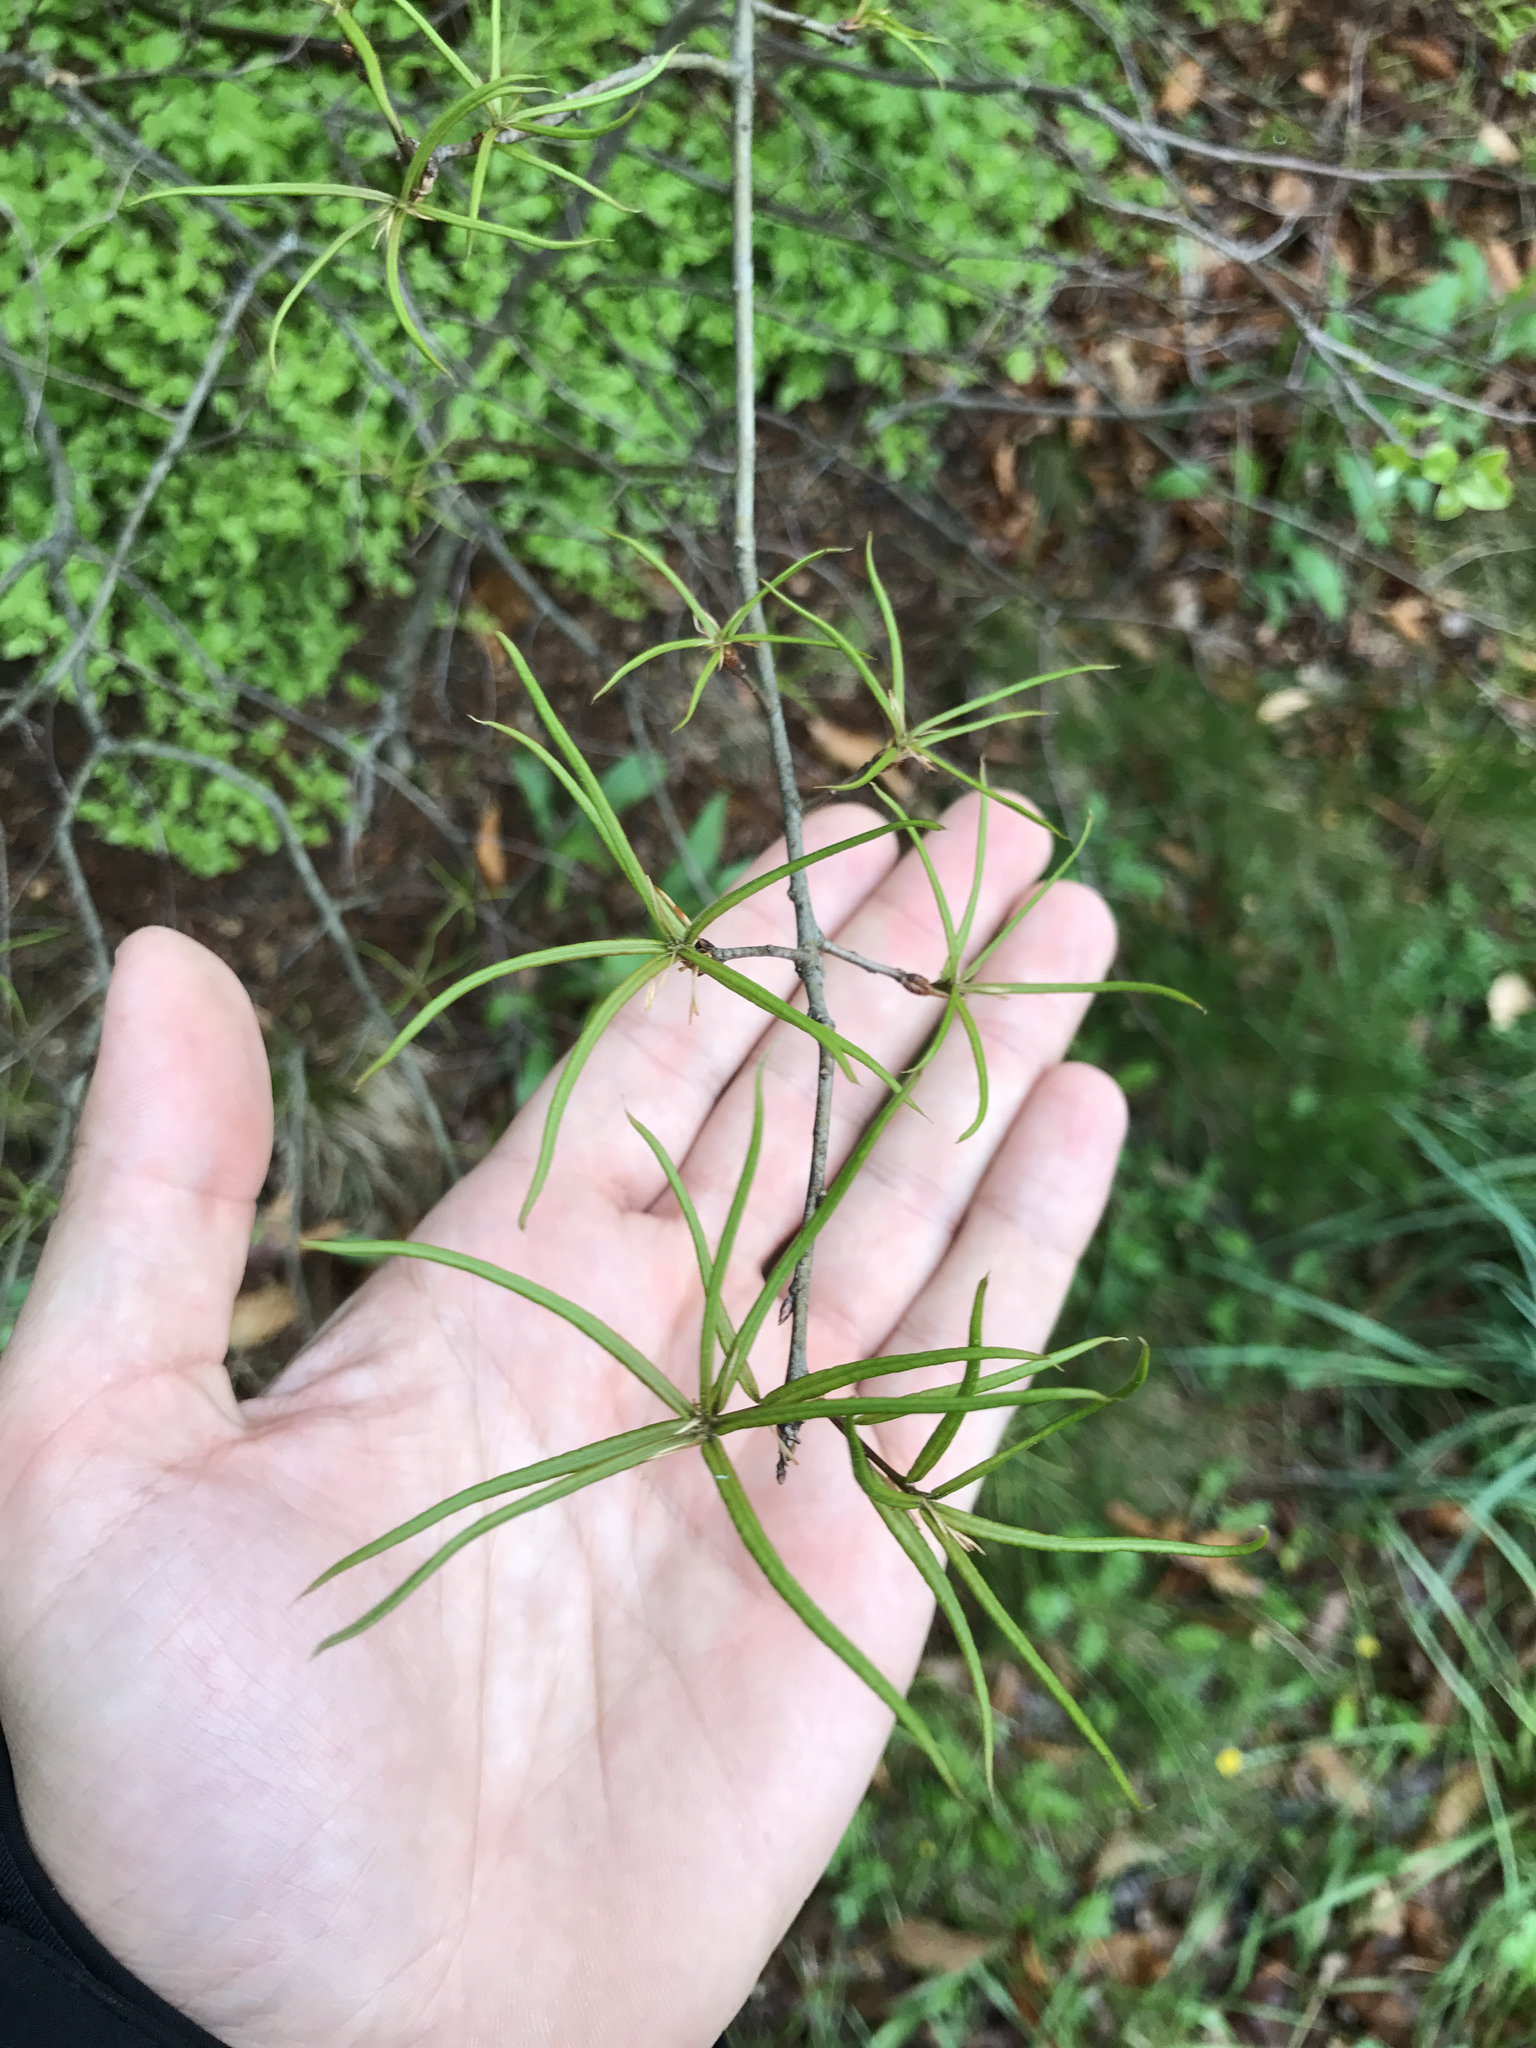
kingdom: Plantae
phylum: Tracheophyta
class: Magnoliopsida
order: Fagales
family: Fagaceae
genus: Quercus
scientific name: Quercus phellos
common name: Willow oak
